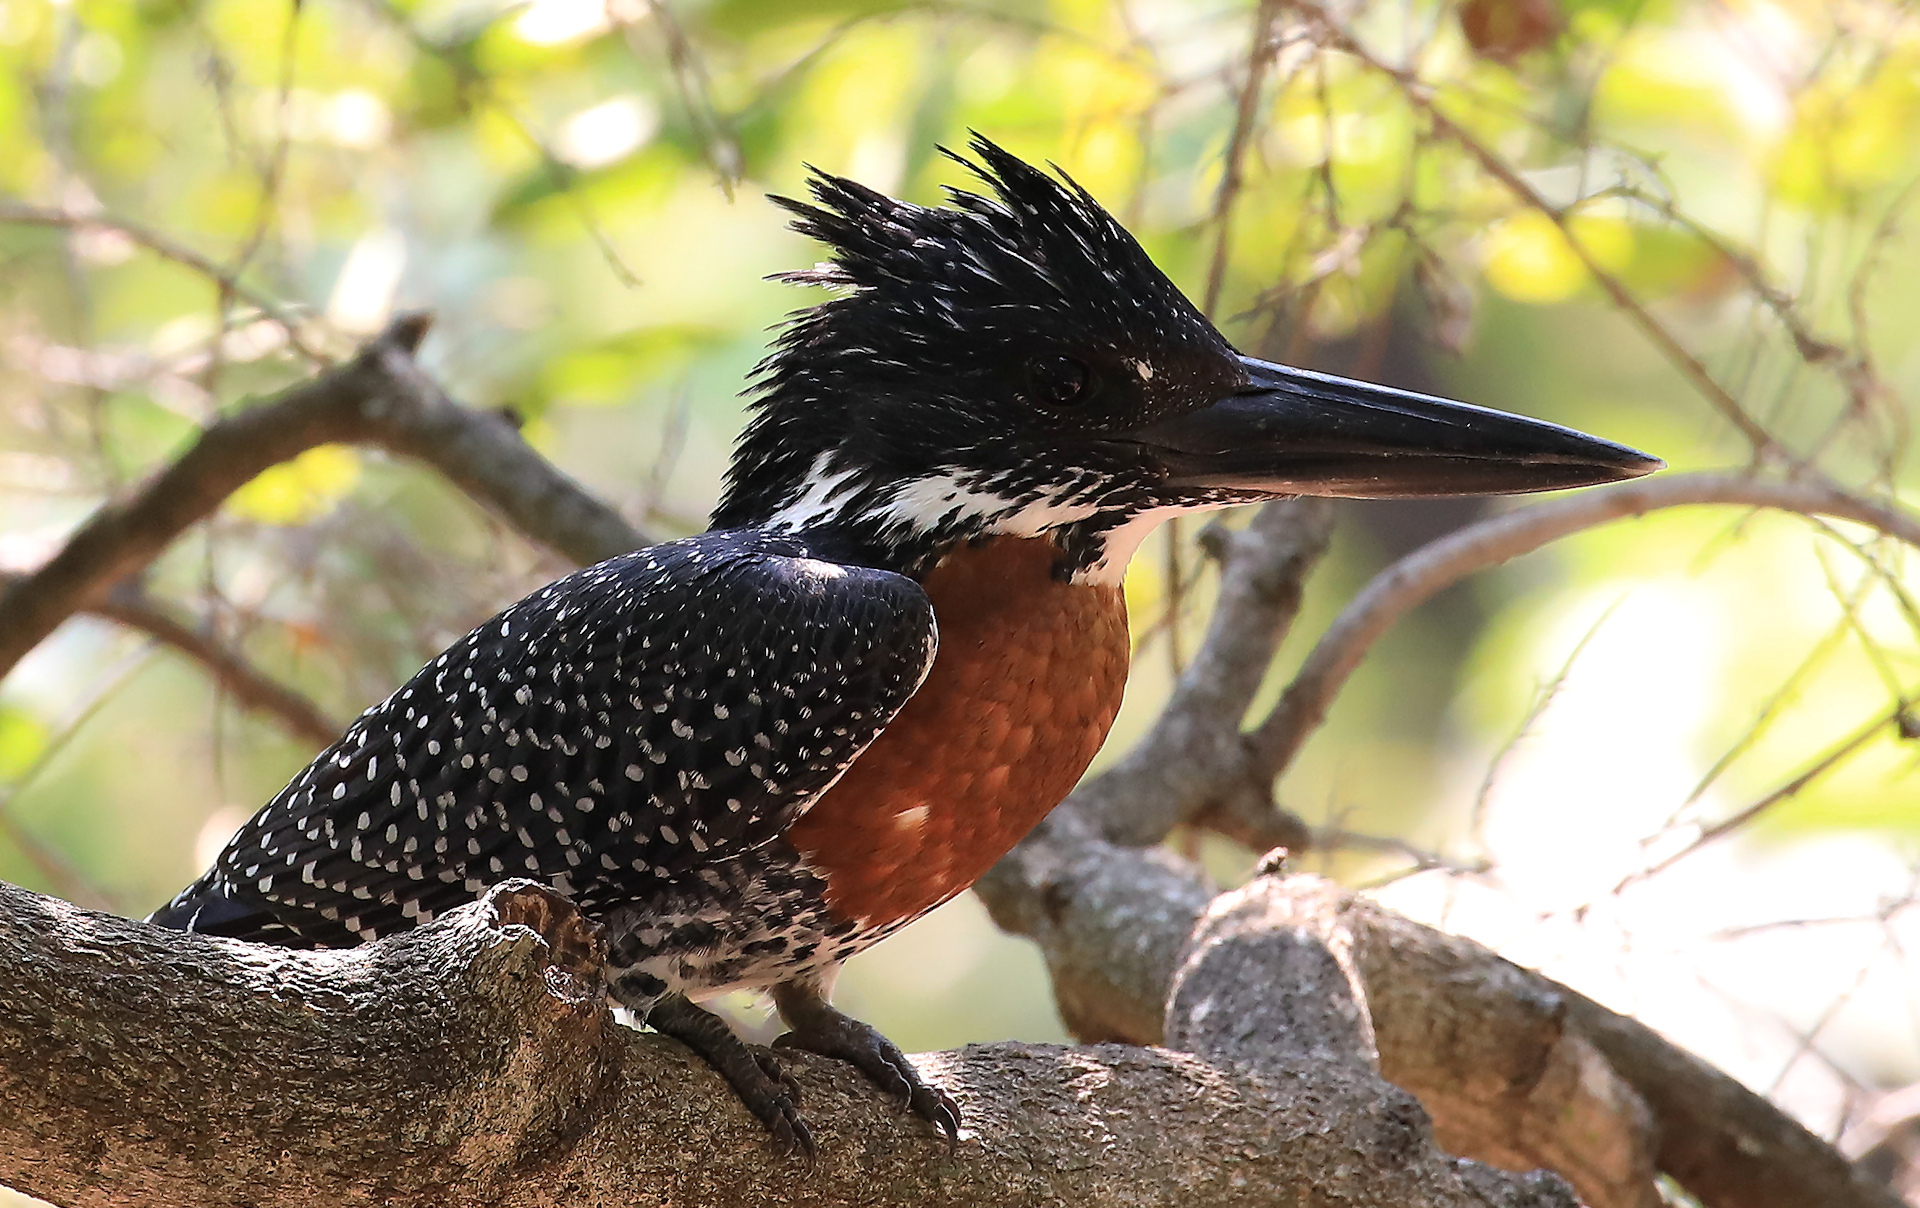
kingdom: Animalia
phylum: Chordata
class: Aves
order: Coraciiformes
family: Alcedinidae
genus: Megaceryle
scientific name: Megaceryle maxima
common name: Giant kingfisher
